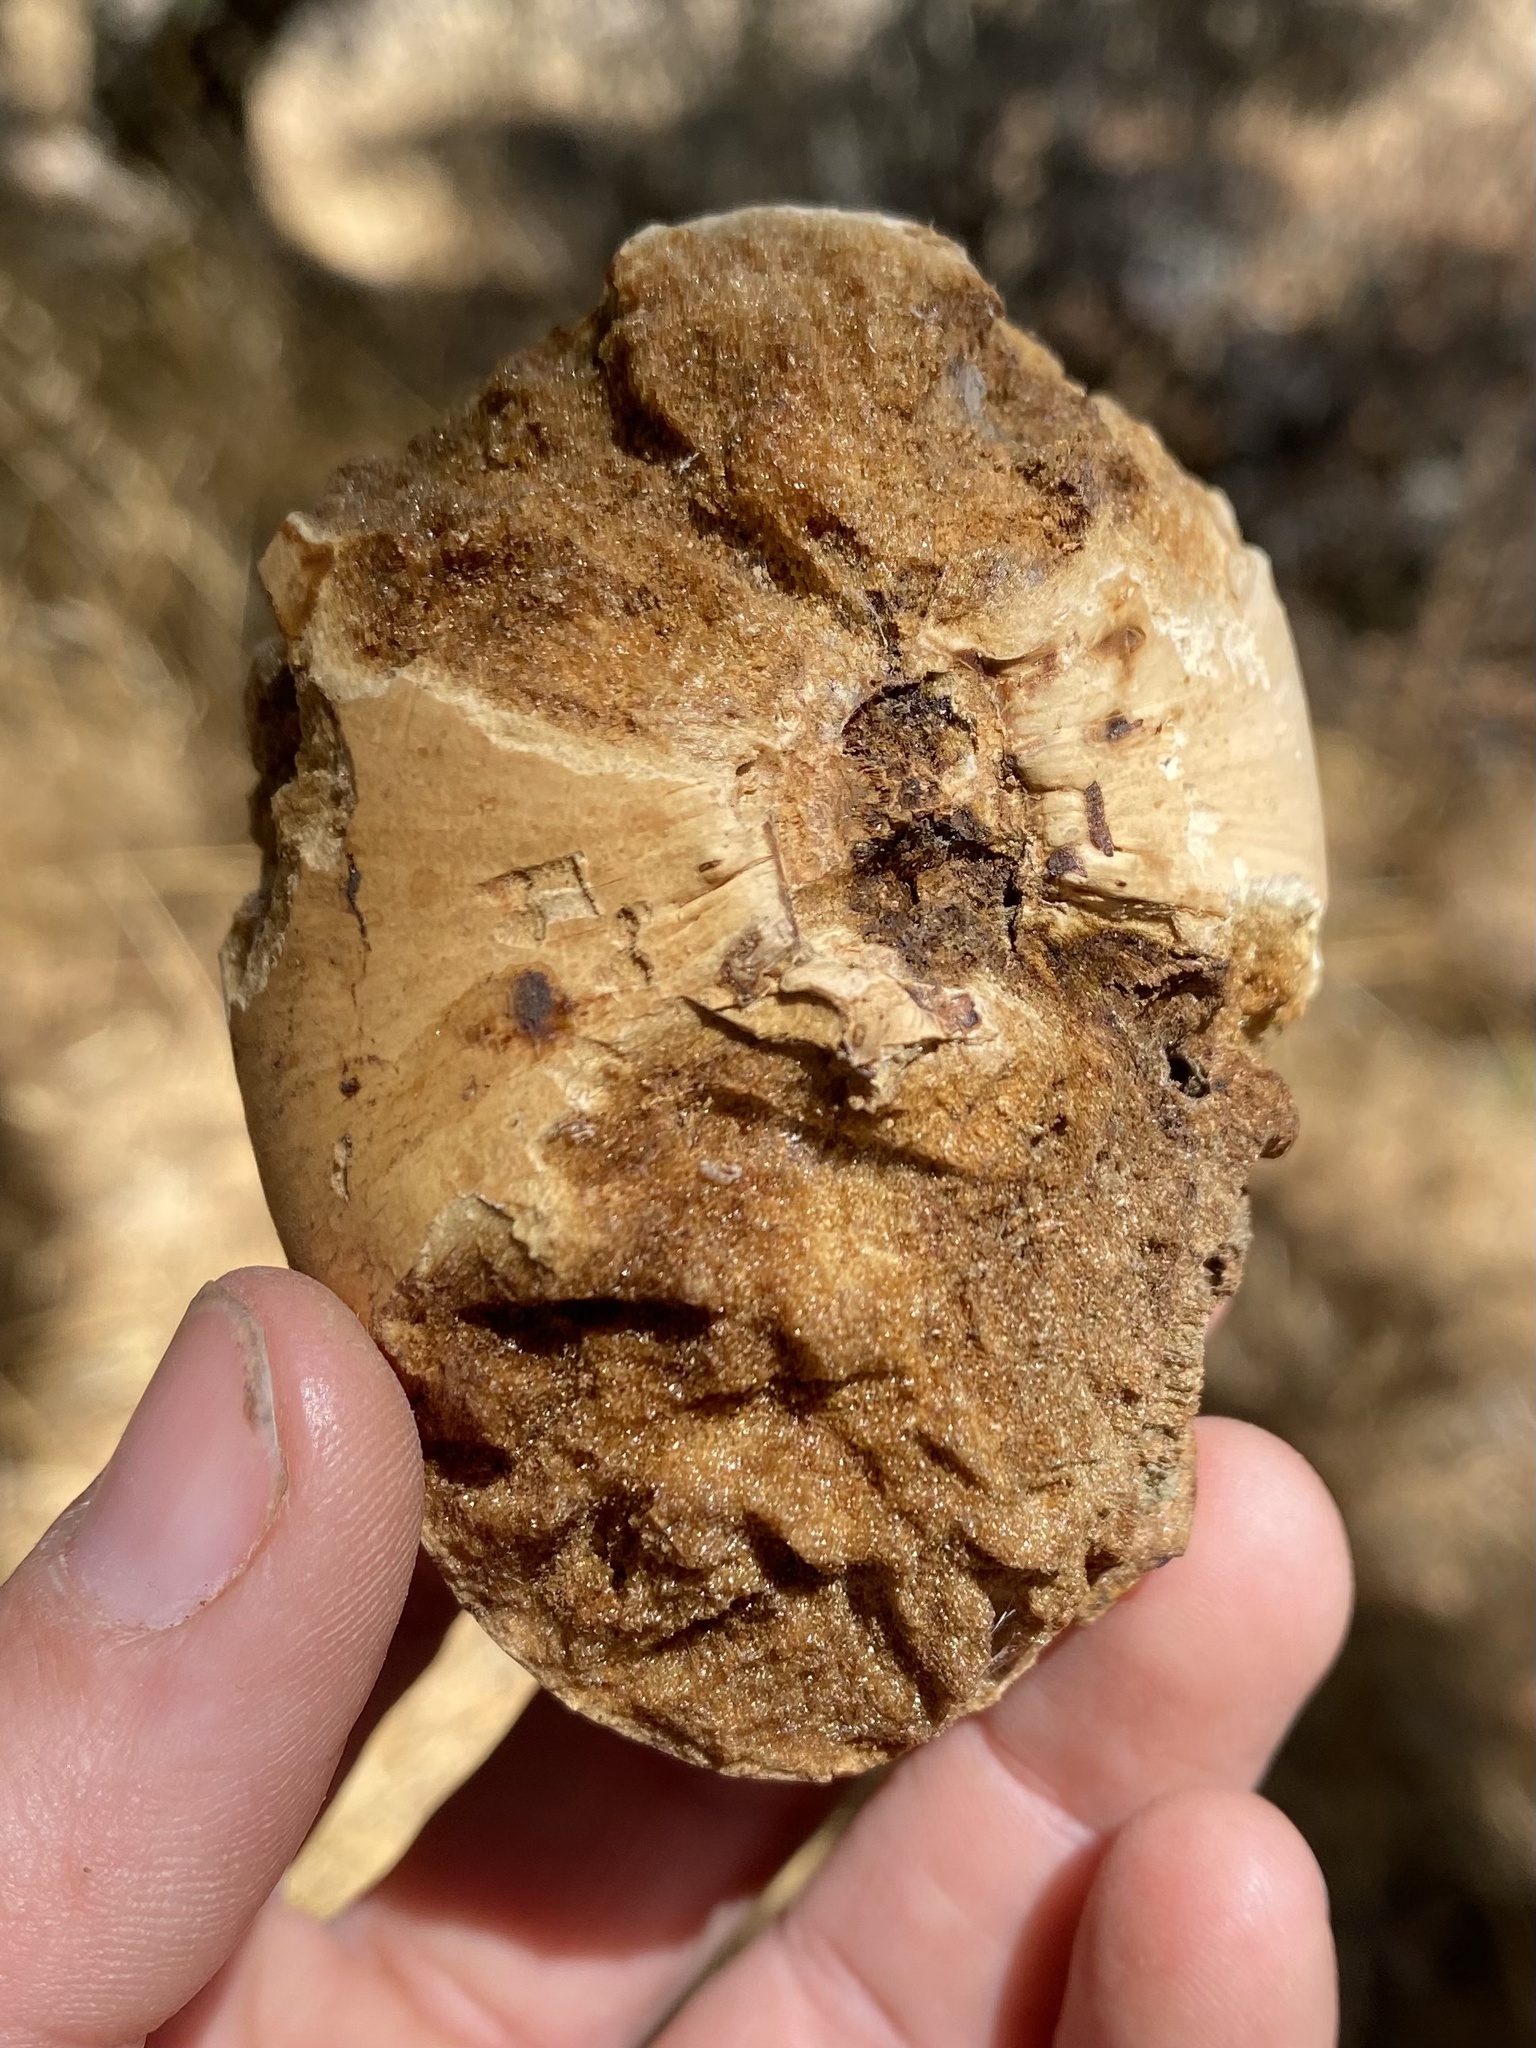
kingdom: Animalia
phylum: Arthropoda
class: Insecta
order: Hymenoptera
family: Cynipidae
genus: Andricus
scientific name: Andricus quercuscalifornicus
